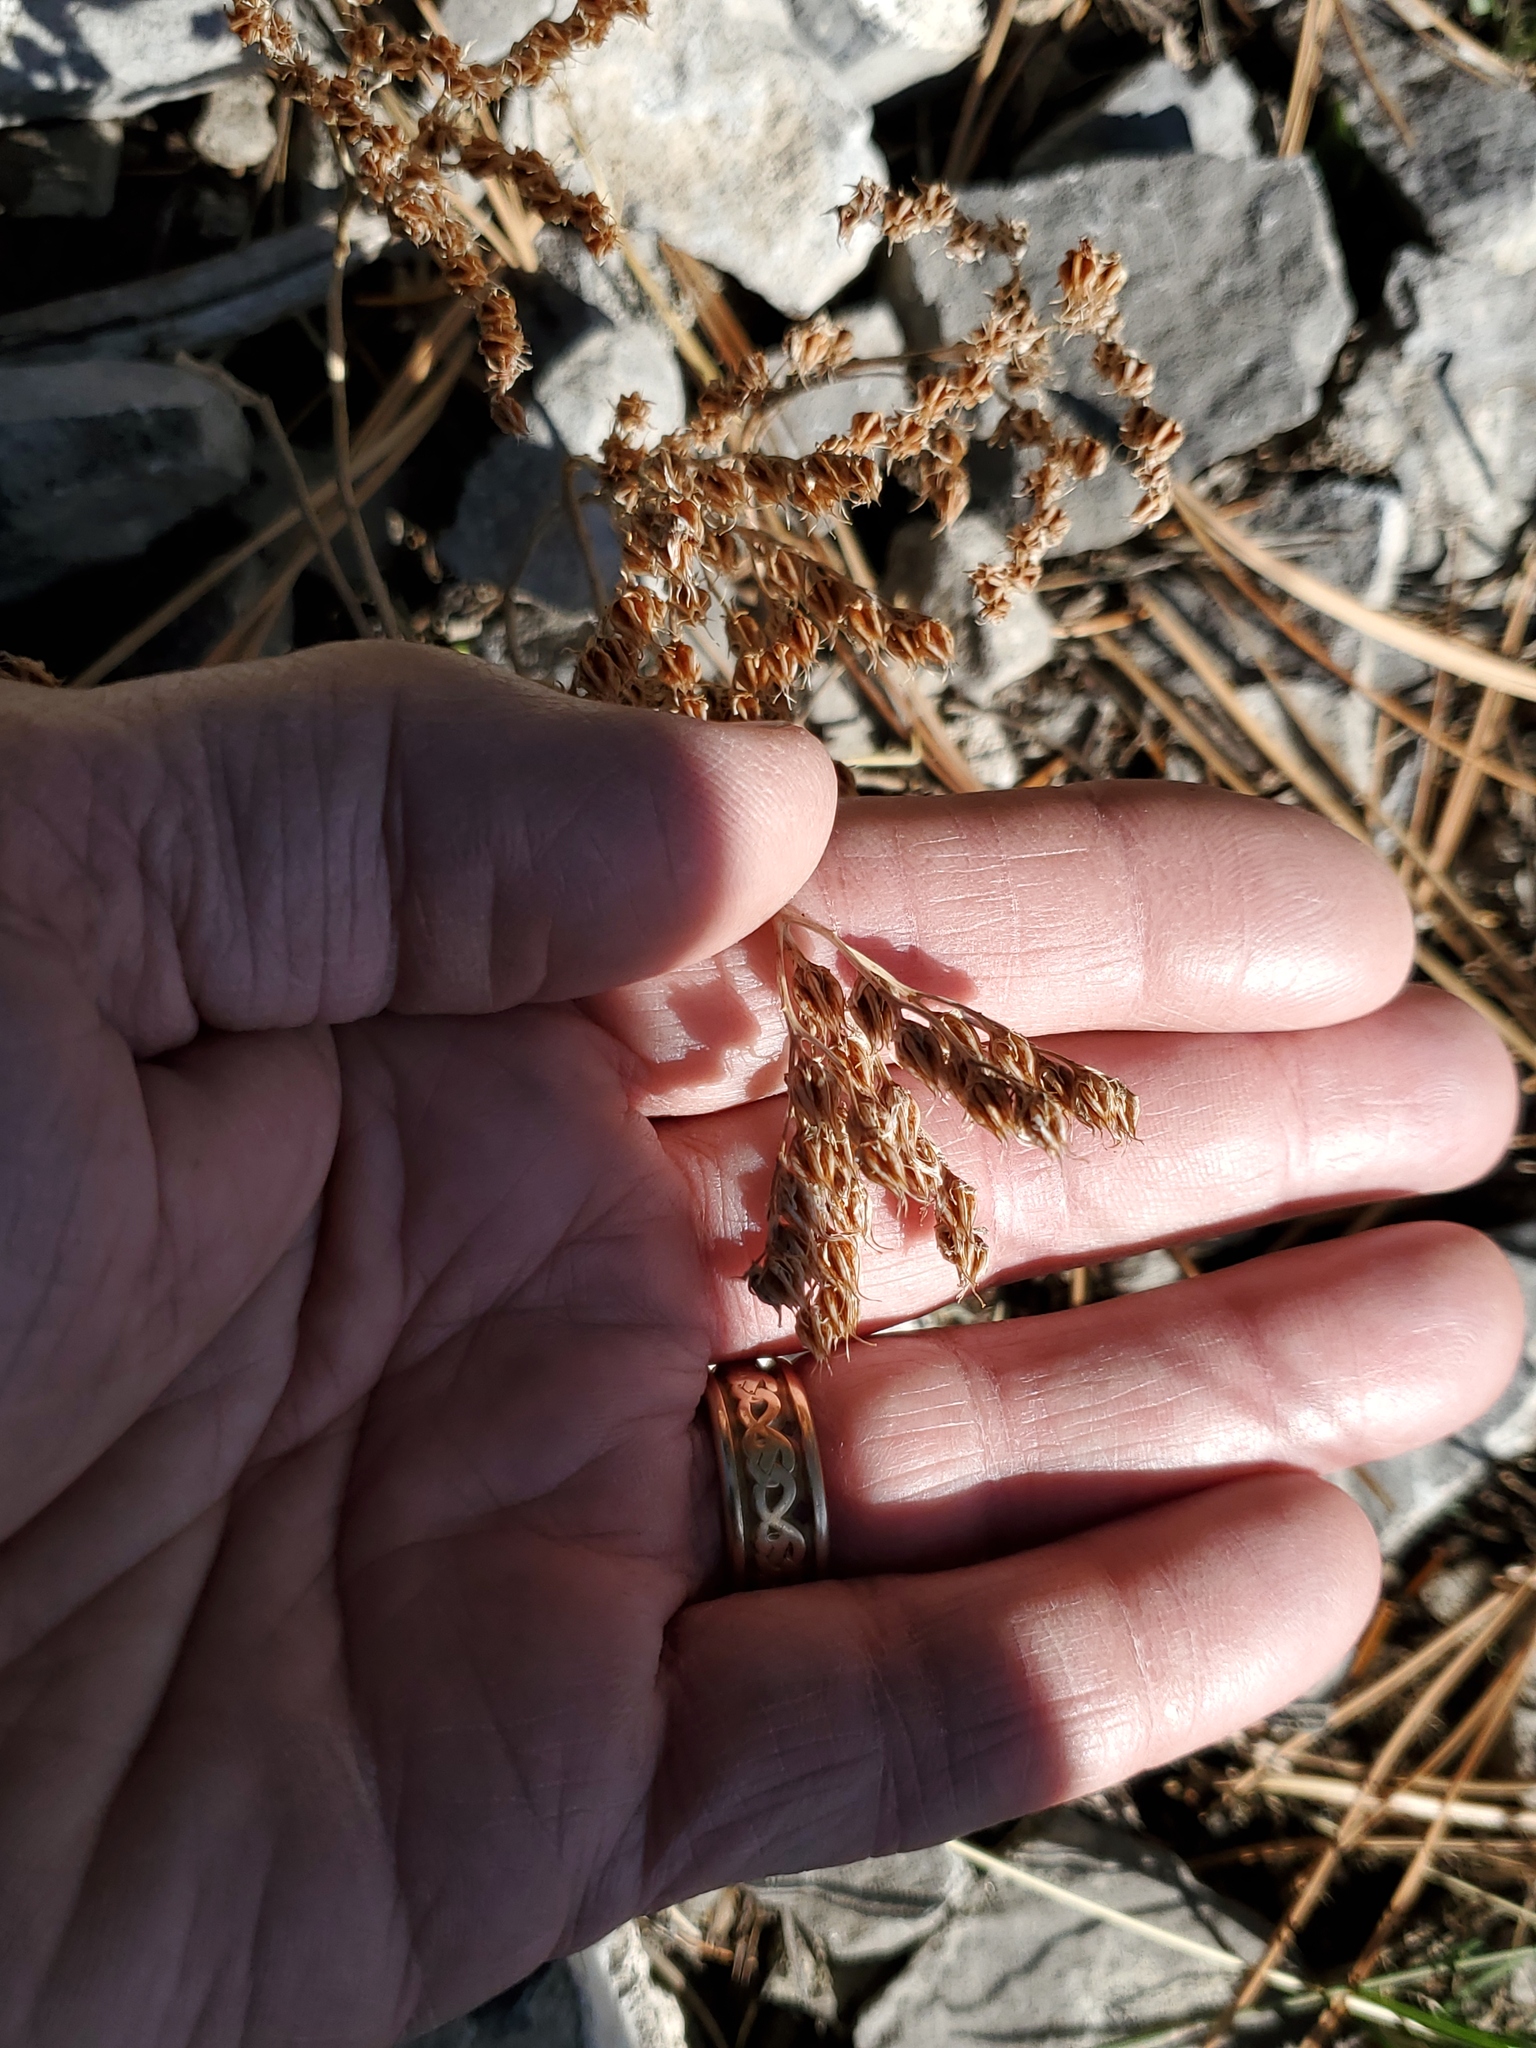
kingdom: Plantae
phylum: Tracheophyta
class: Magnoliopsida
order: Saxifragales
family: Crassulaceae
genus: Sedum
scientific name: Sedum lanceolatum
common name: Common stonecrop
